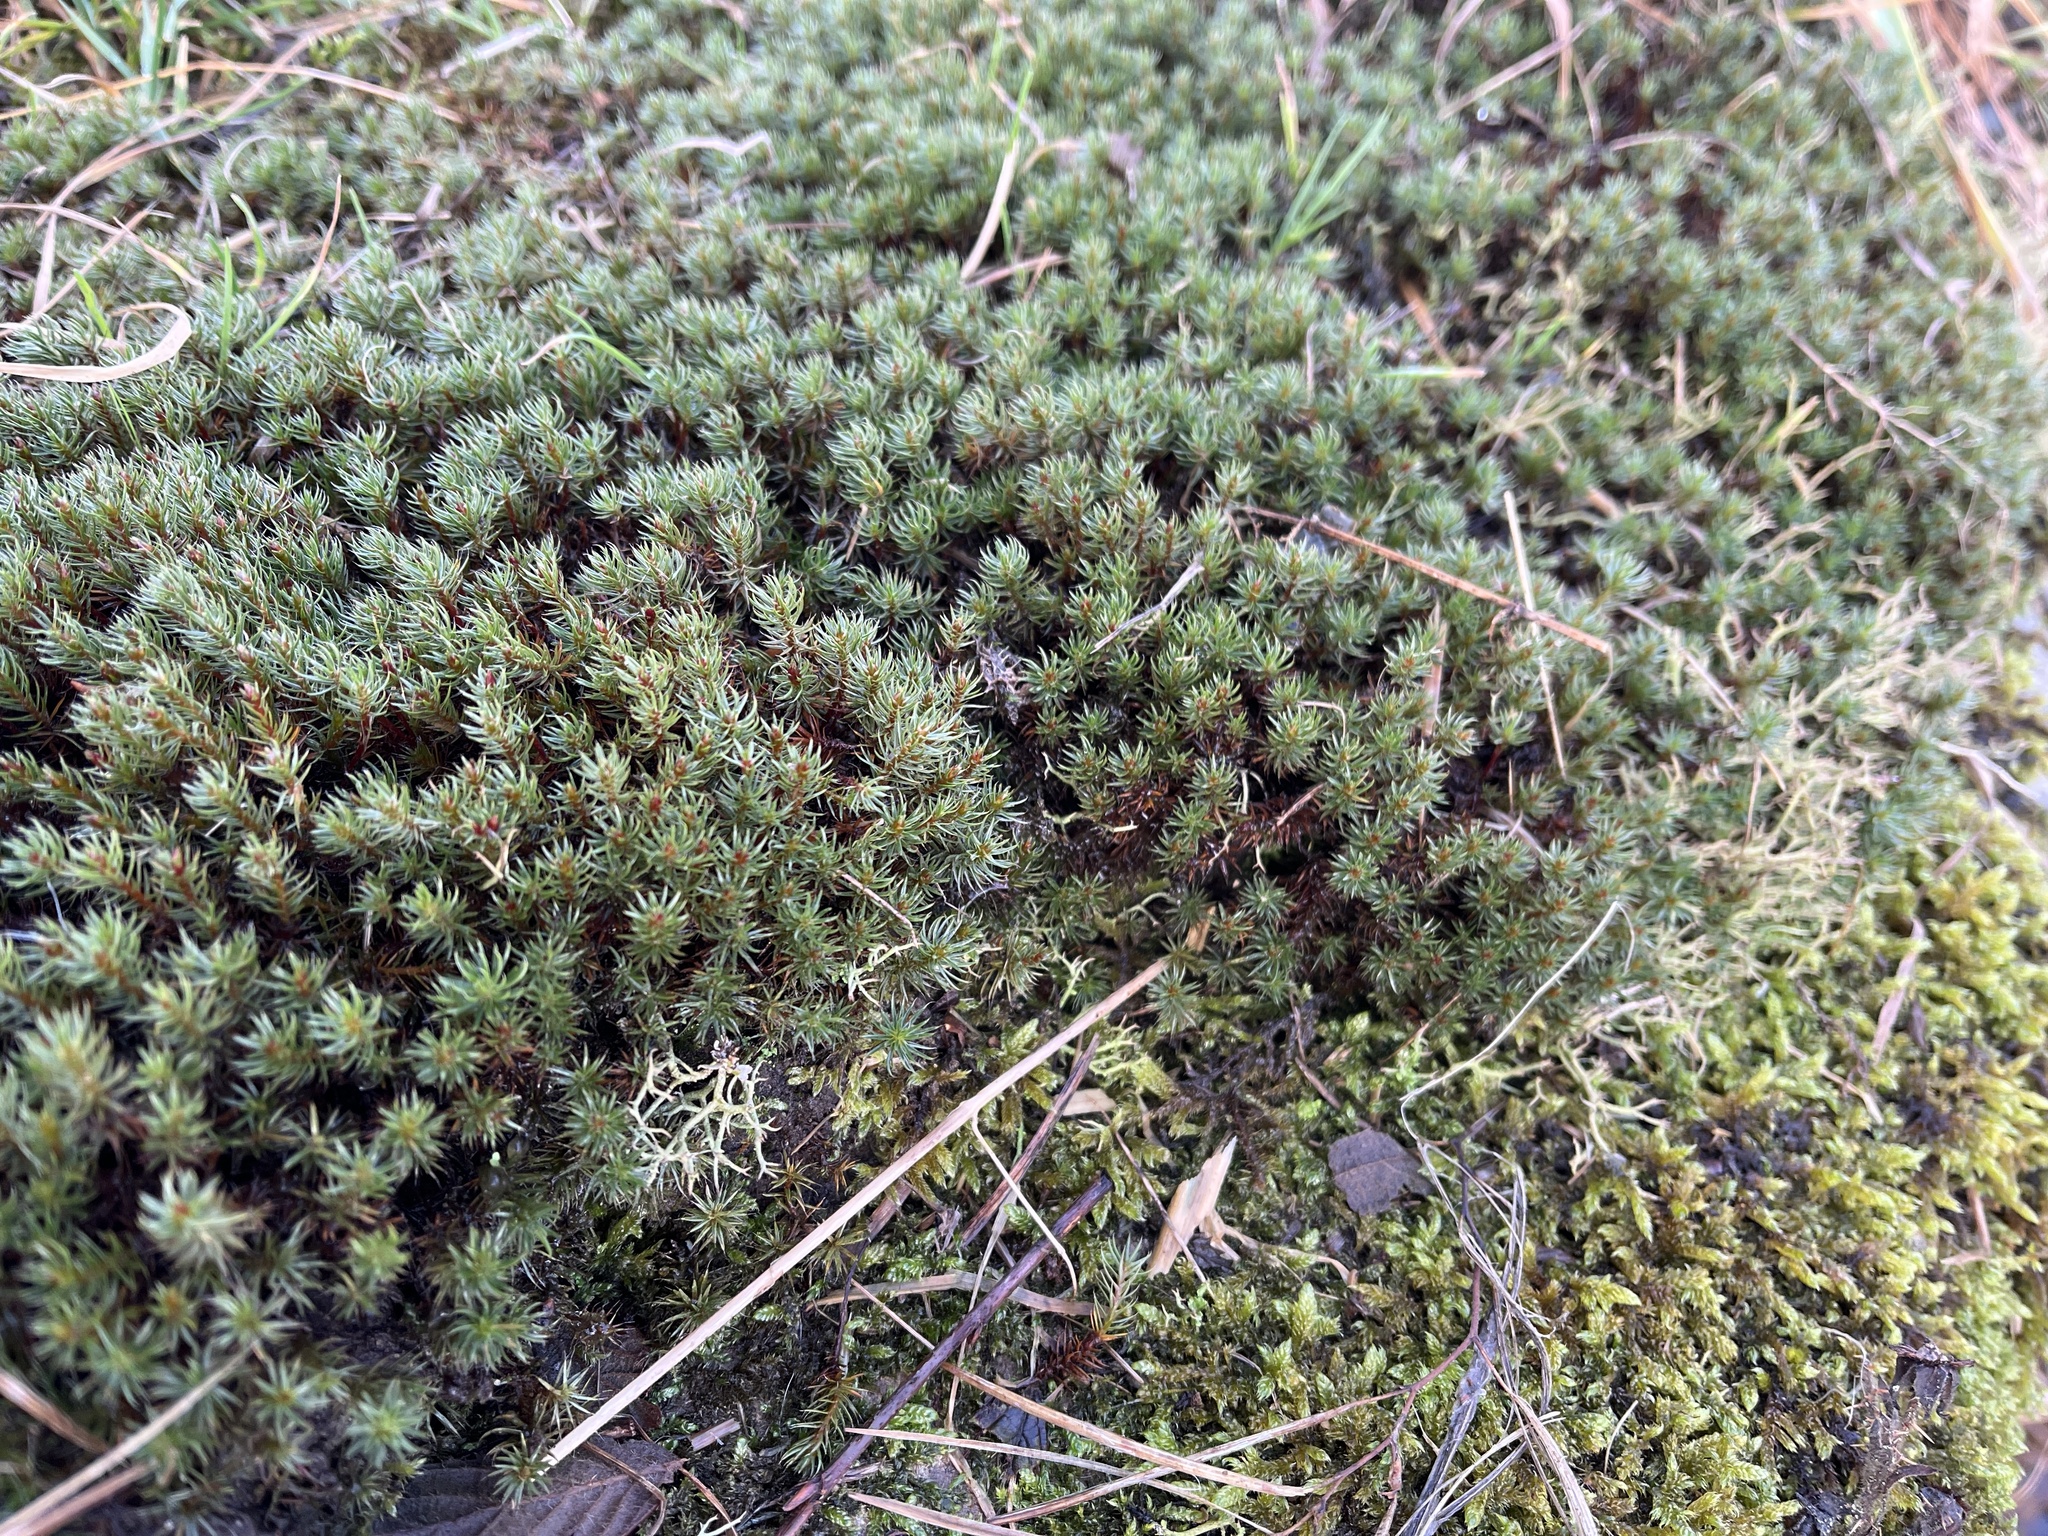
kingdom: Plantae
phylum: Bryophyta
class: Polytrichopsida
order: Polytrichales
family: Polytrichaceae
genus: Polytrichum
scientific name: Polytrichum piliferum
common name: Bristly haircap
